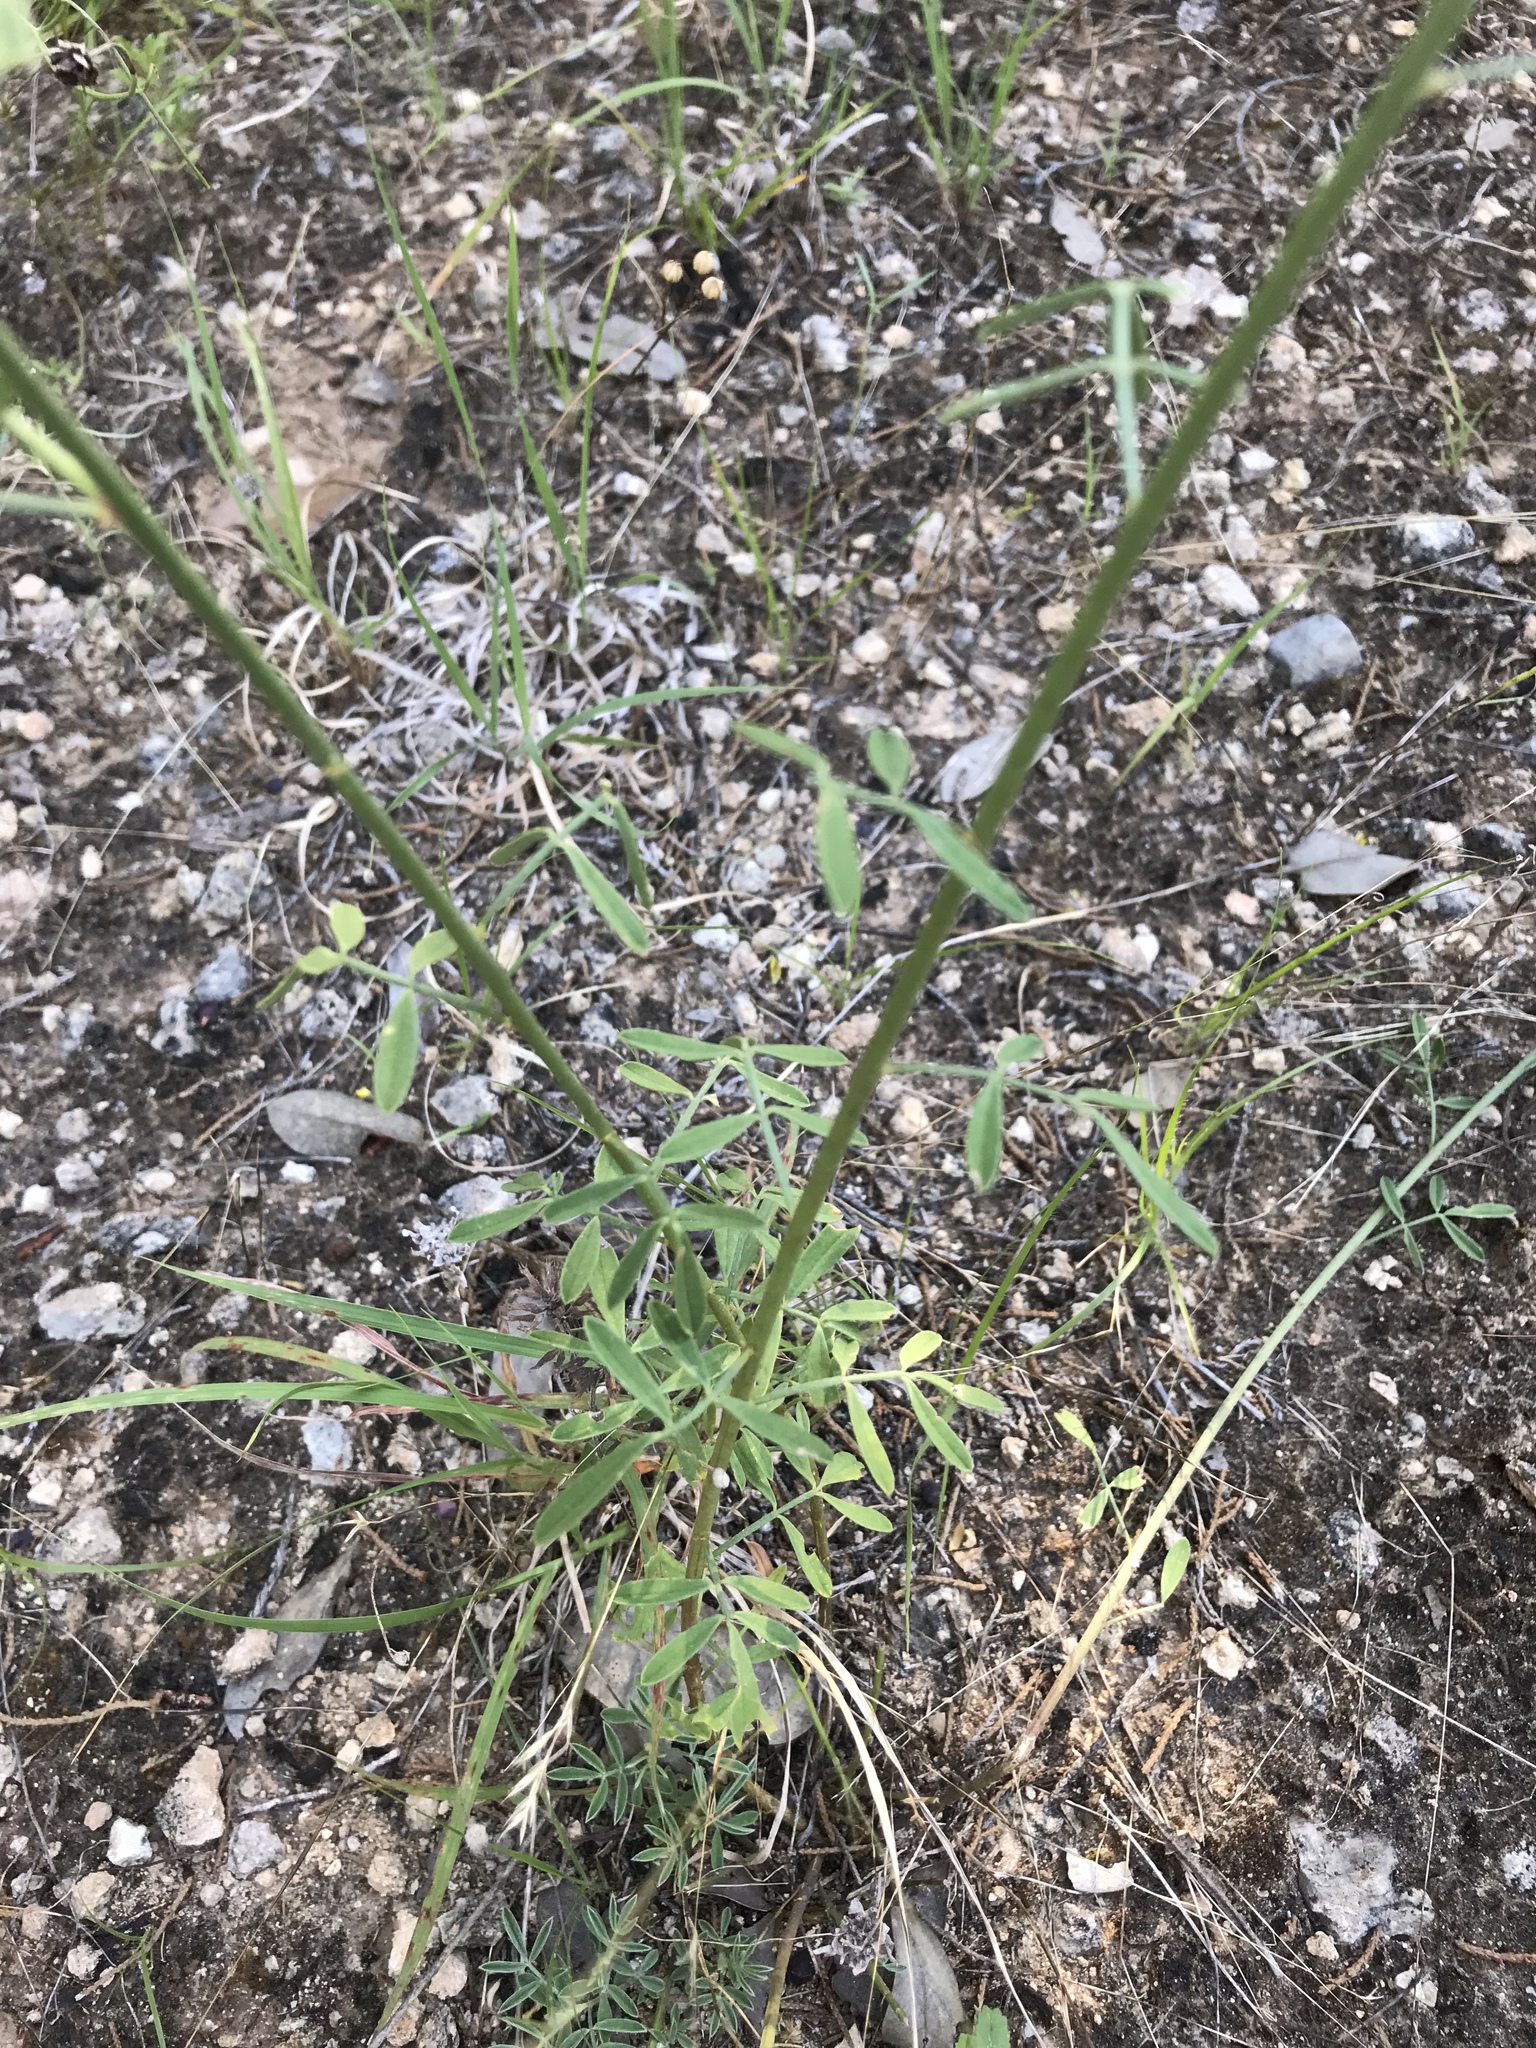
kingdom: Plantae
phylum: Tracheophyta
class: Magnoliopsida
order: Fabales
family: Fabaceae
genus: Dalea
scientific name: Dalea aurea
